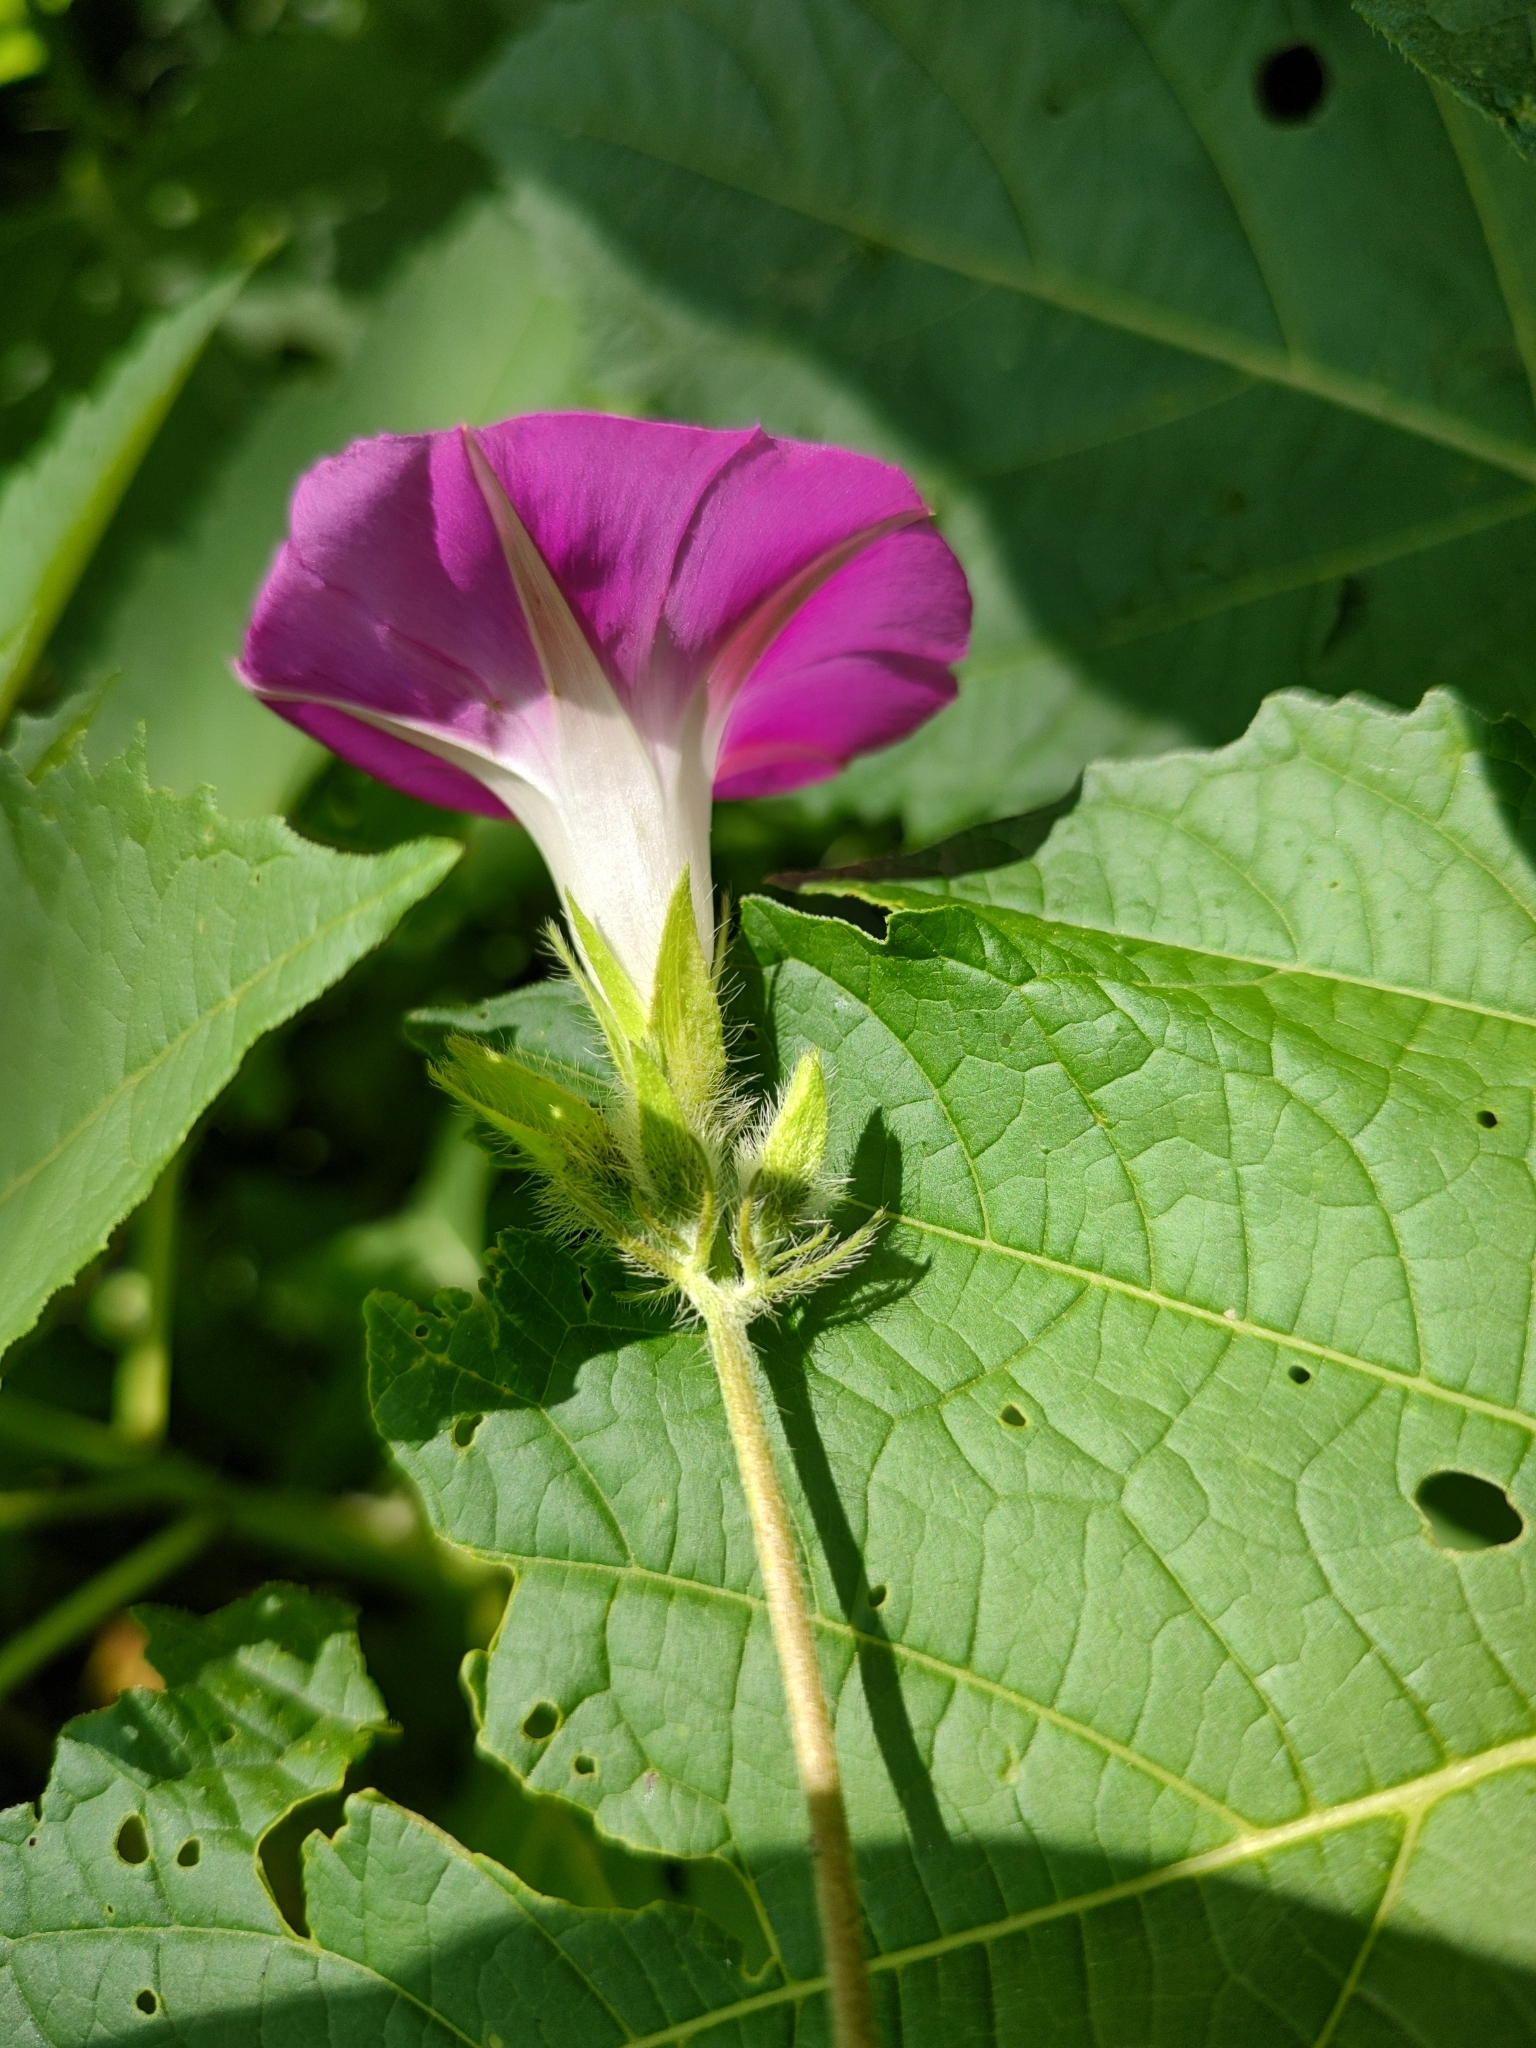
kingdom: Plantae
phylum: Tracheophyta
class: Magnoliopsida
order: Solanales
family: Convolvulaceae
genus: Ipomoea
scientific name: Ipomoea purpurea
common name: Common morning-glory
